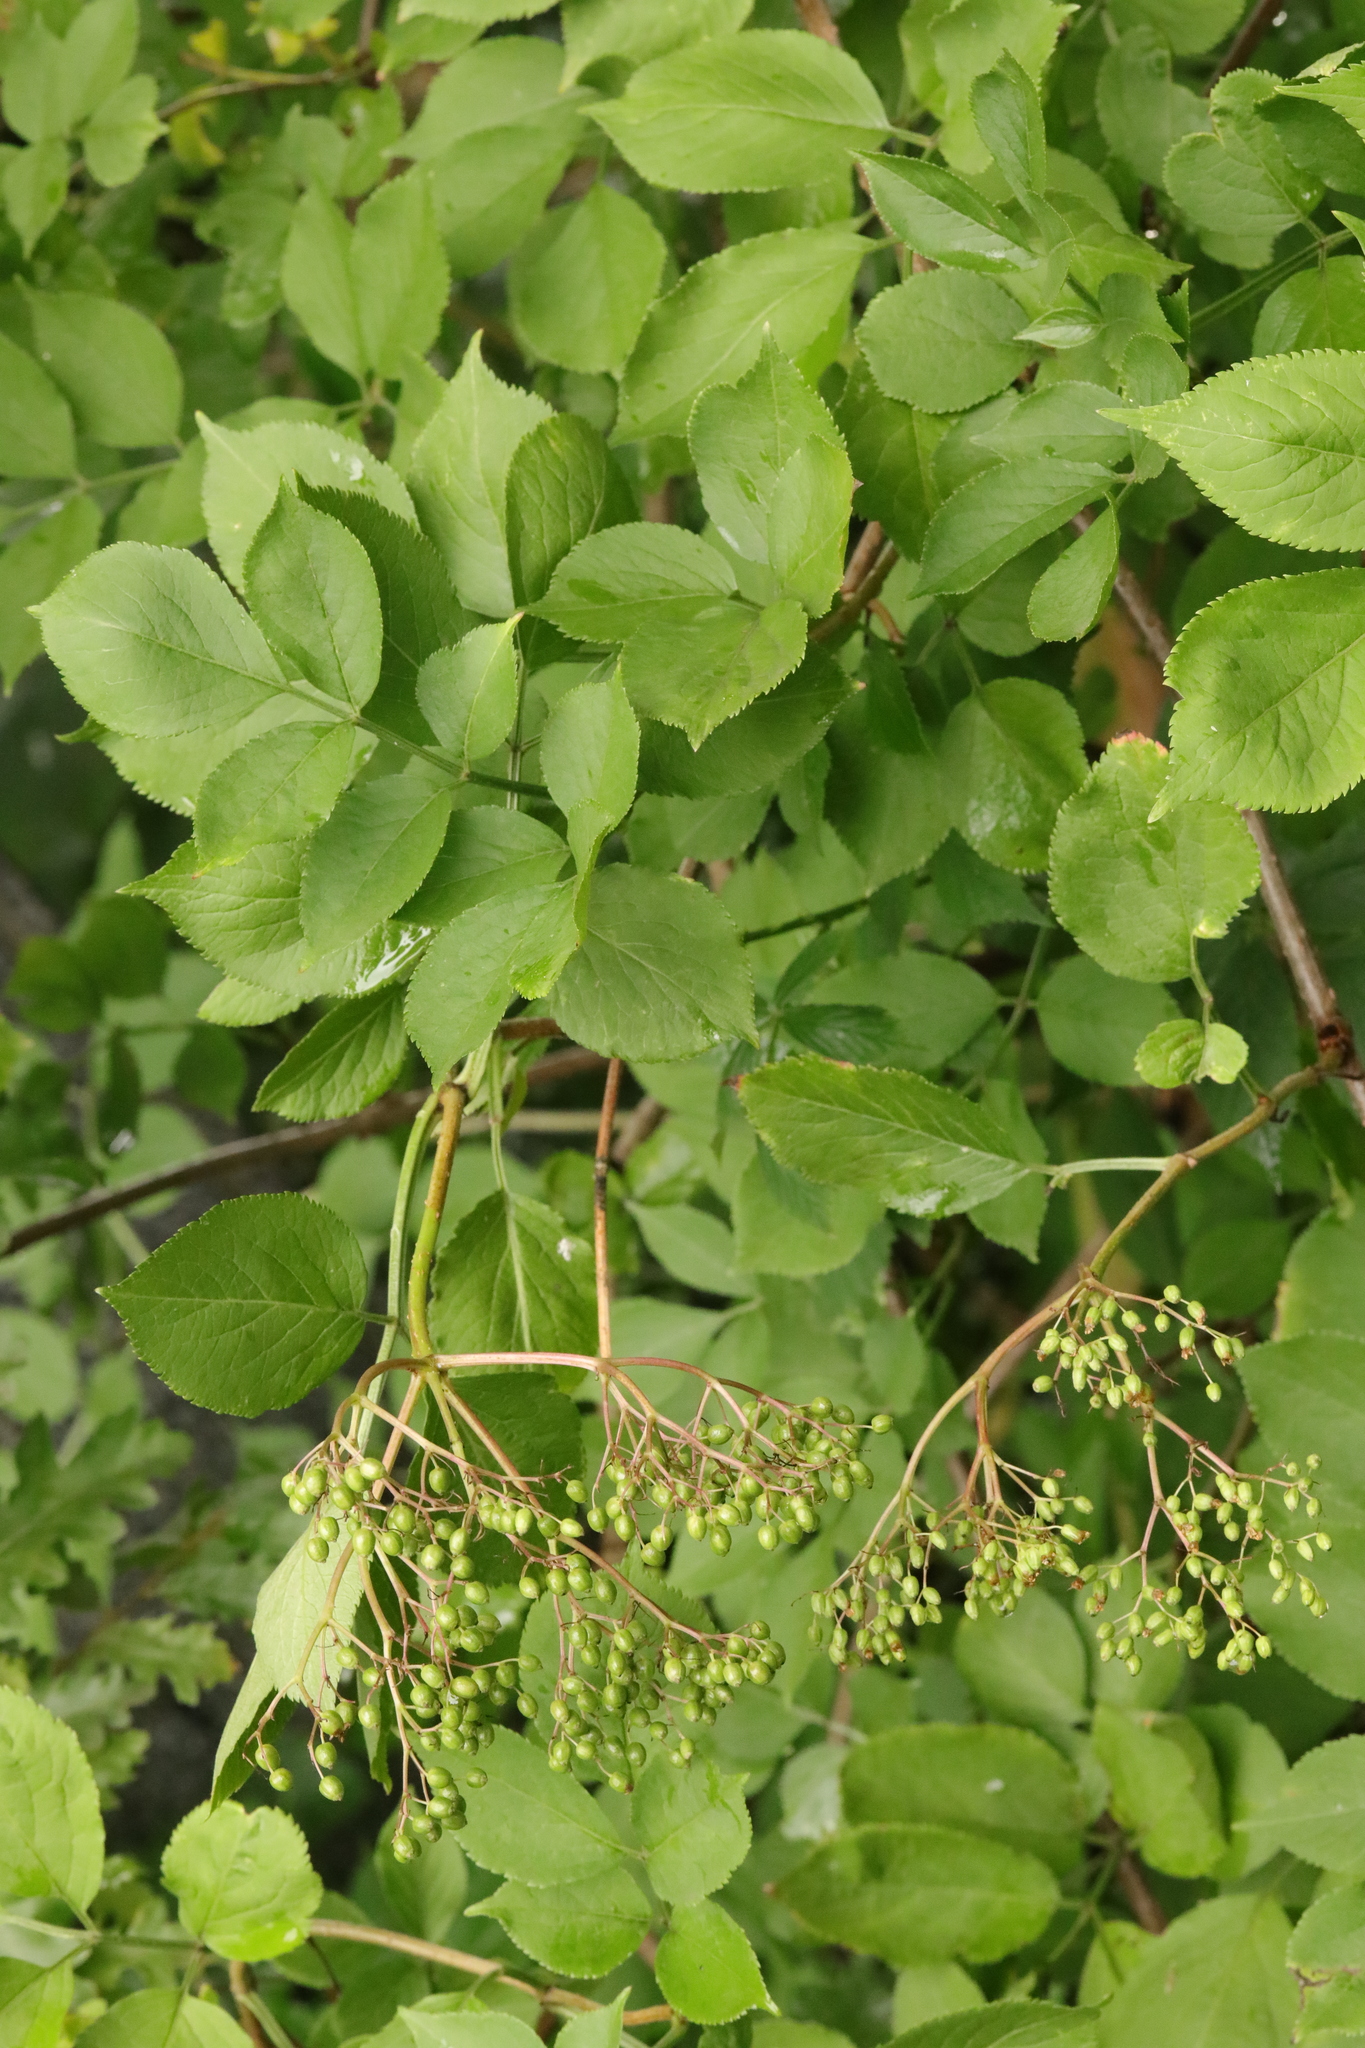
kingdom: Plantae
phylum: Tracheophyta
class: Magnoliopsida
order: Dipsacales
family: Viburnaceae
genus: Sambucus
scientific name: Sambucus nigra
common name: Elder
